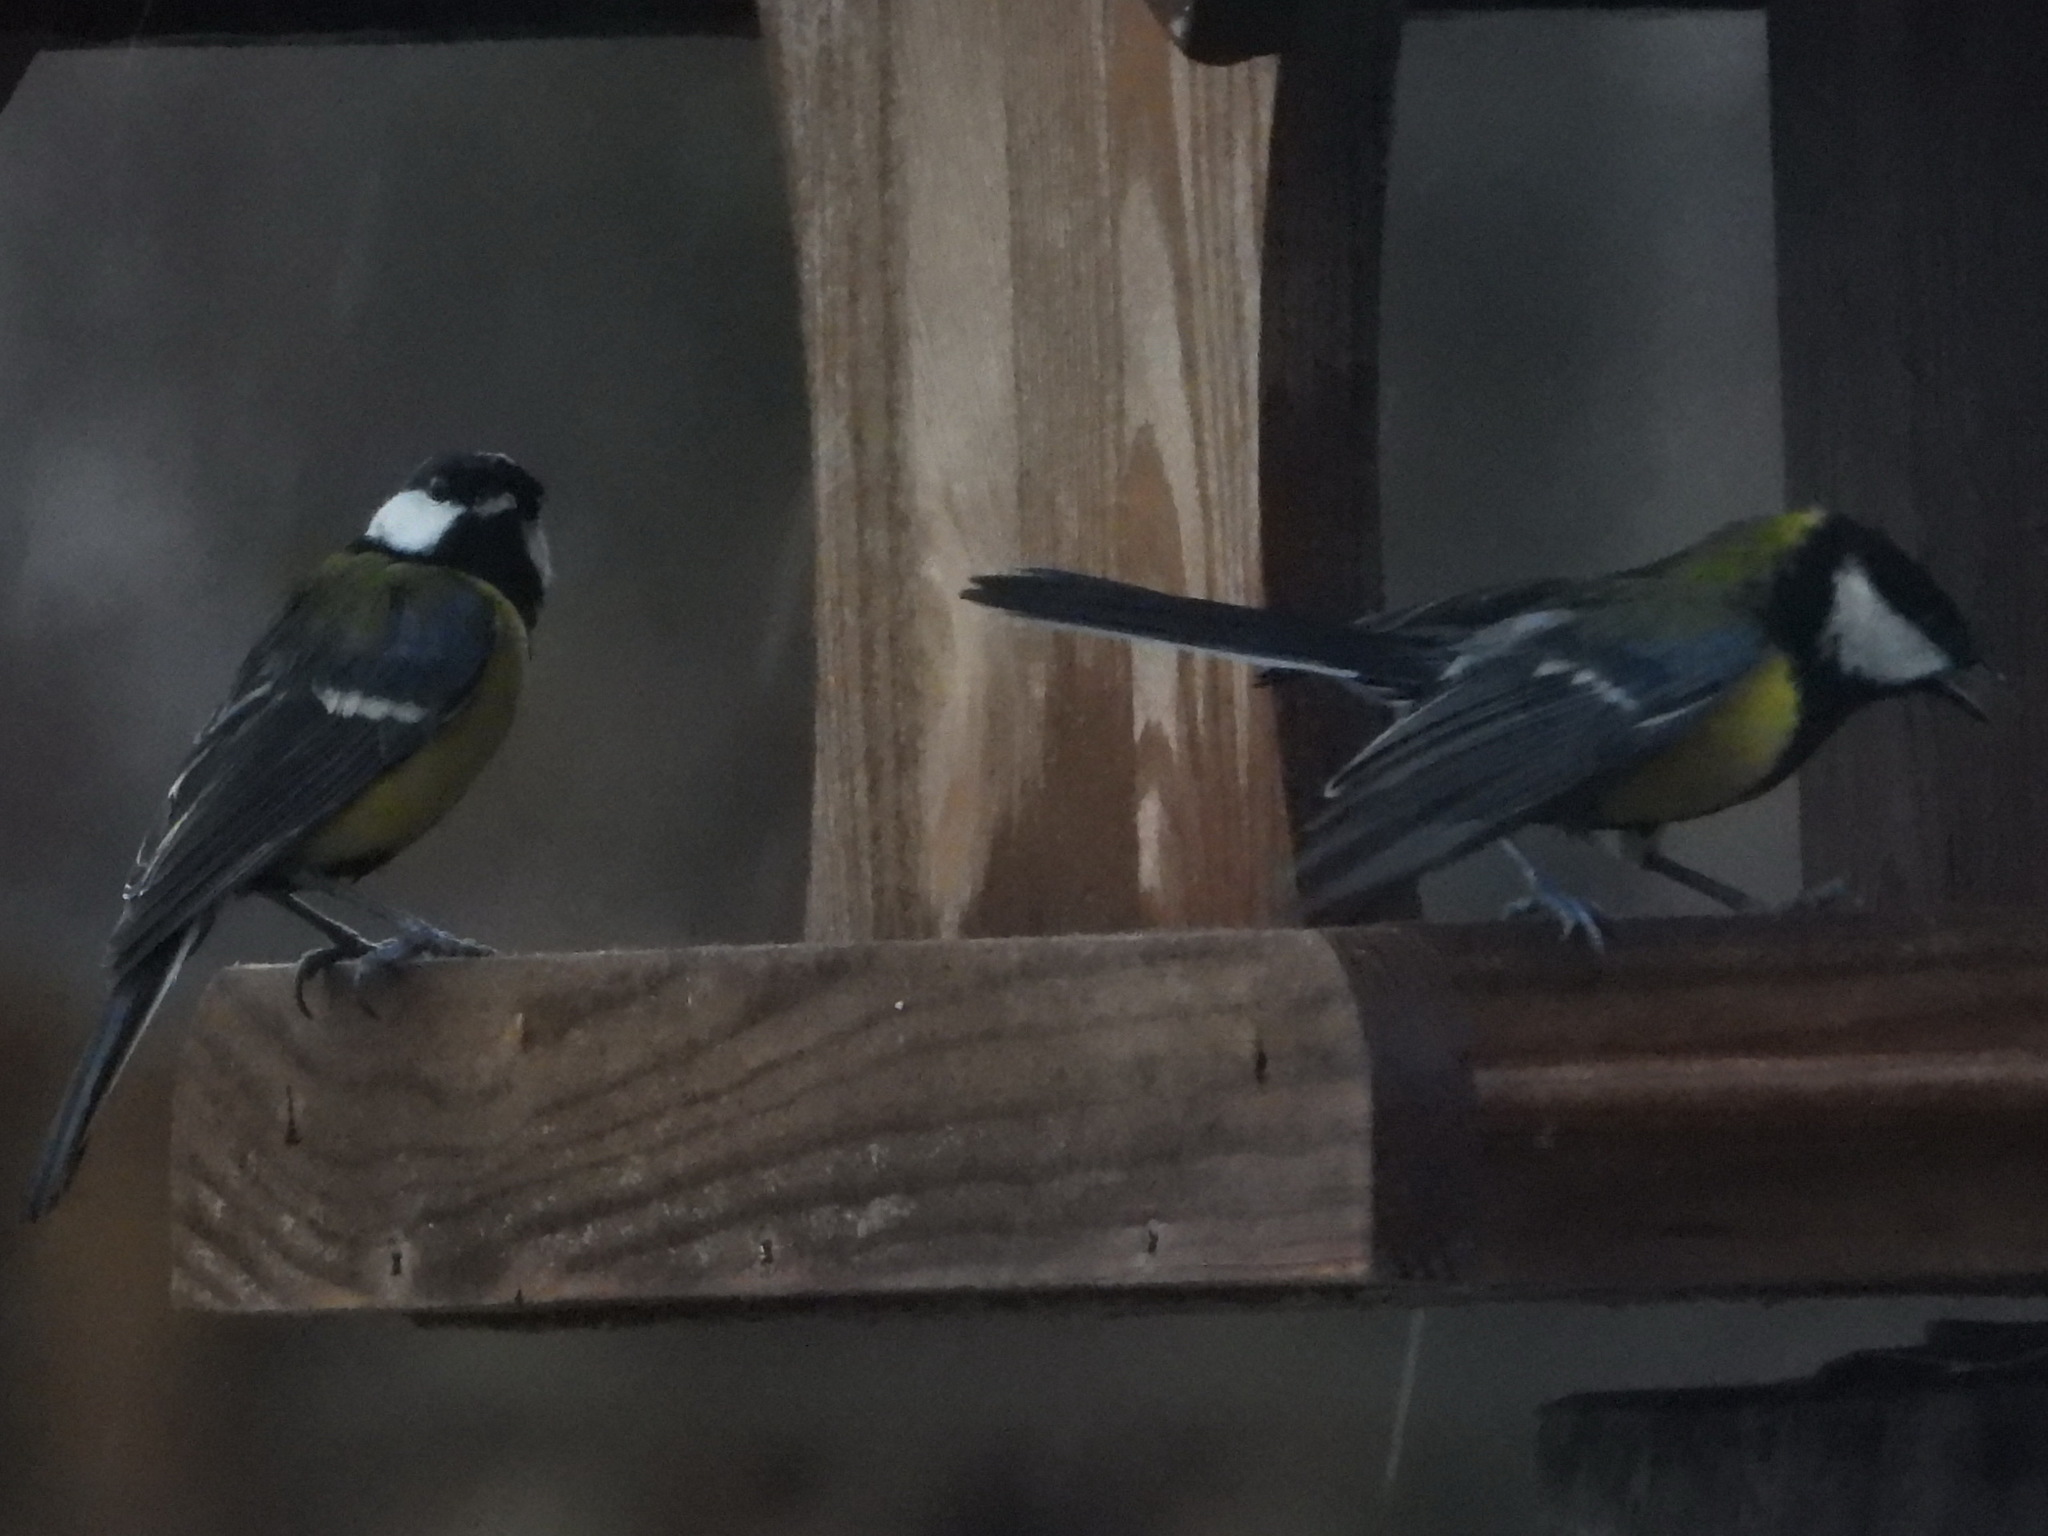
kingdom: Animalia
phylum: Chordata
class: Aves
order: Passeriformes
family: Paridae
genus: Parus
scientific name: Parus major
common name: Great tit
